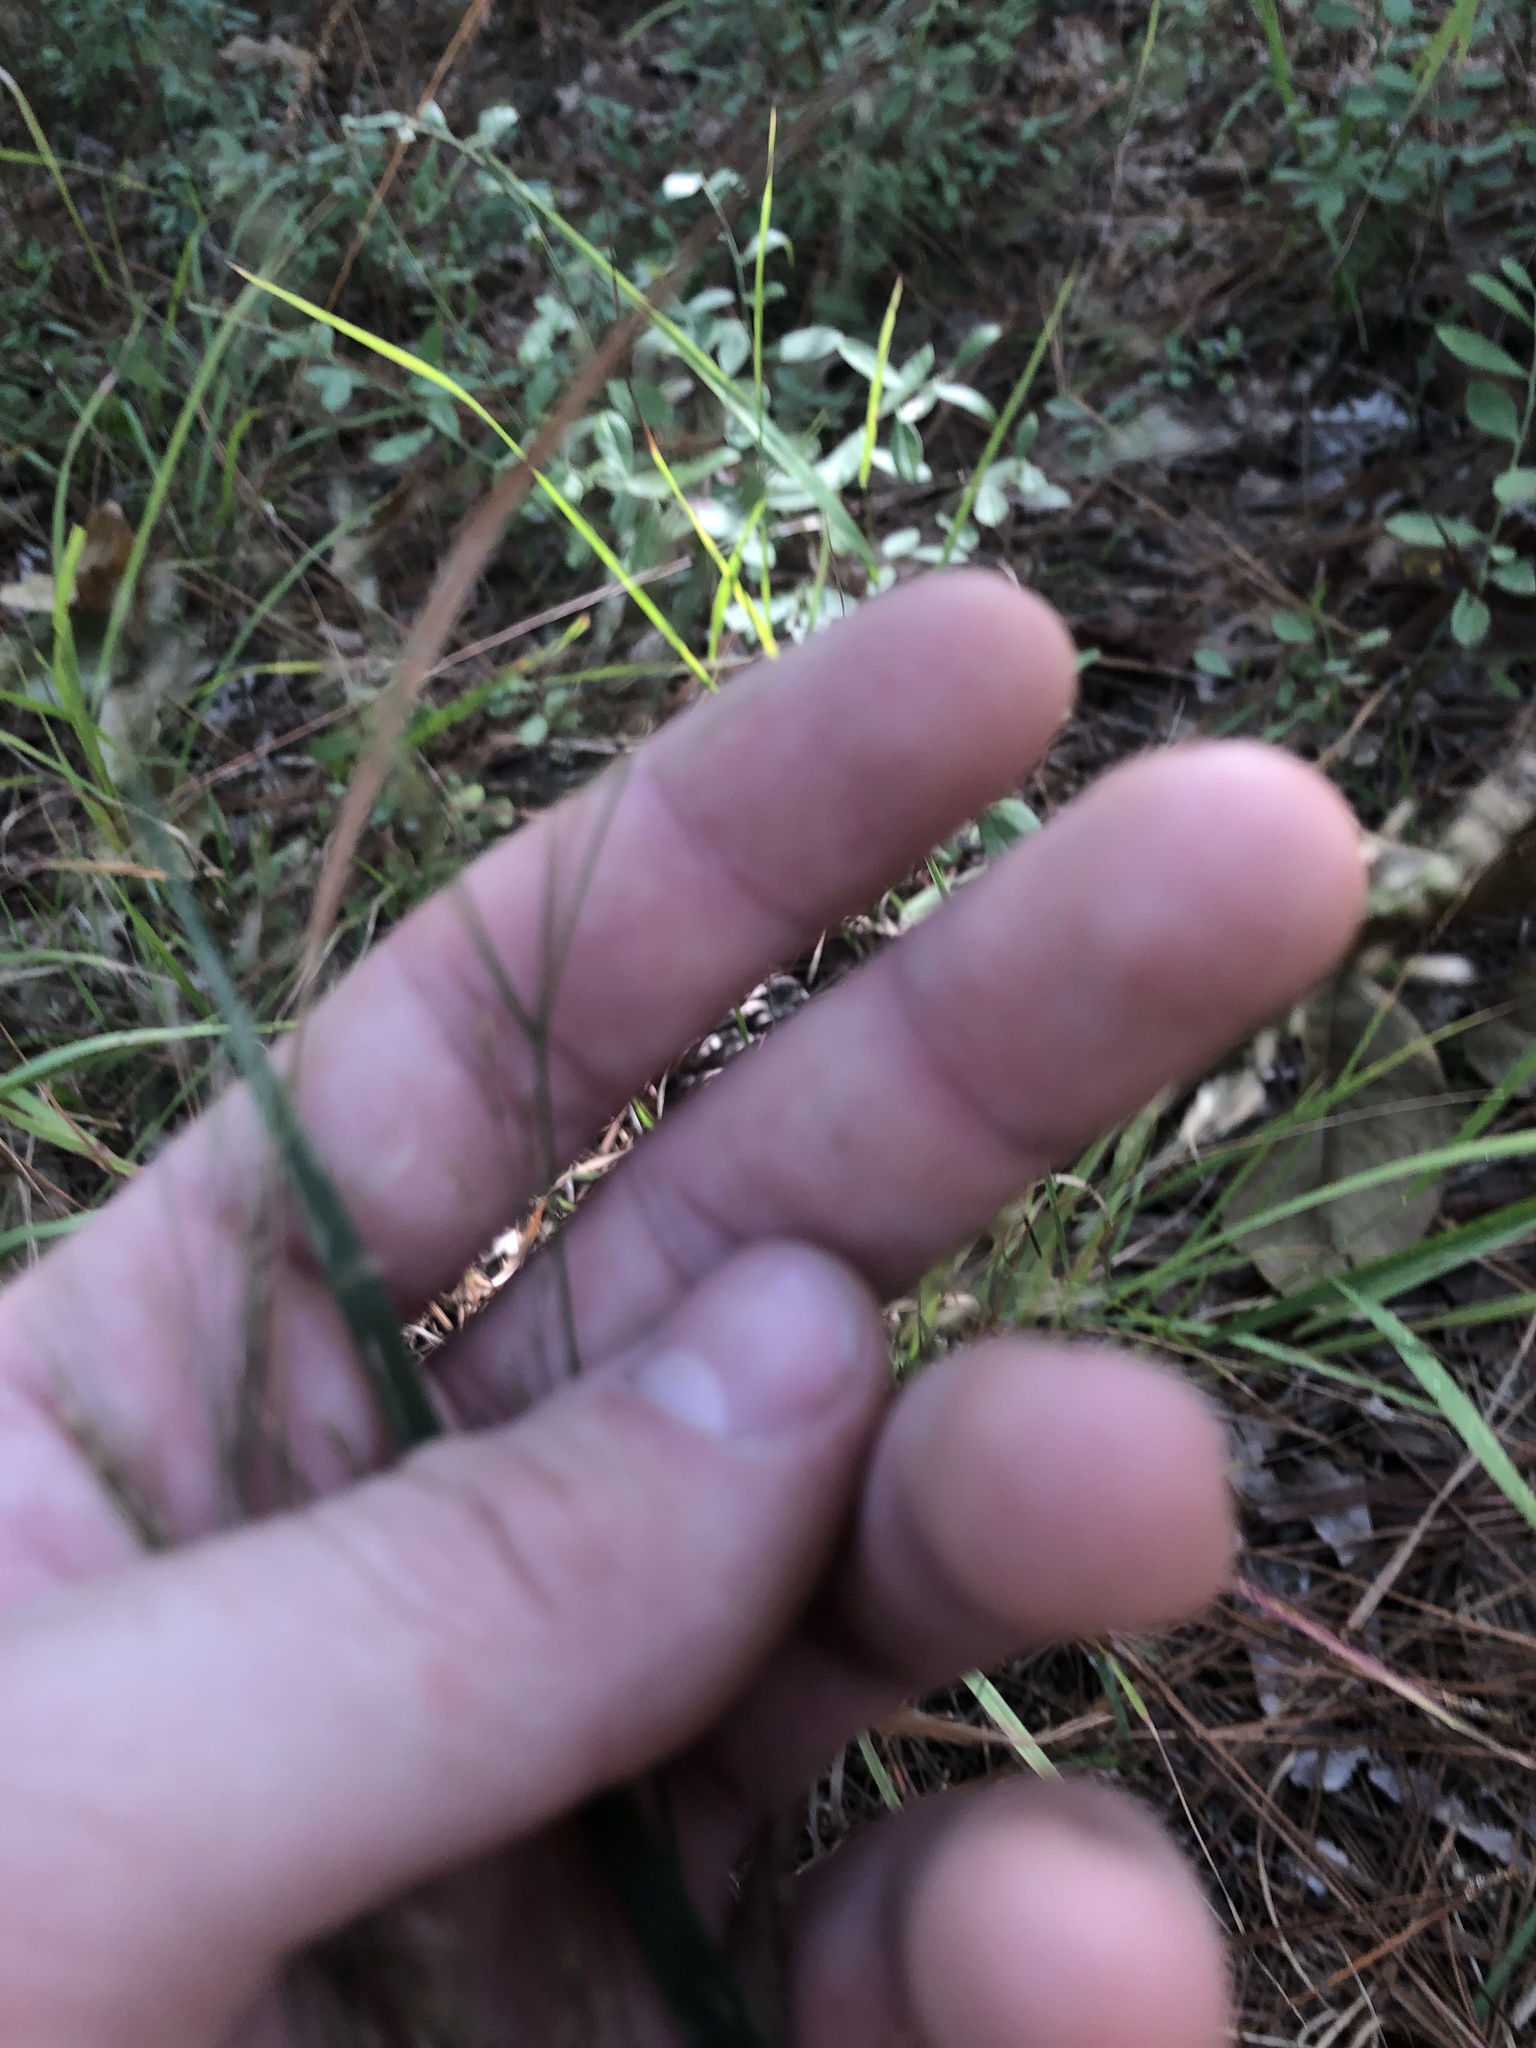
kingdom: Plantae
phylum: Tracheophyta
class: Liliopsida
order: Poales
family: Poaceae
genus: Agrostis
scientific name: Agrostis perennans
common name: Autumn bent
